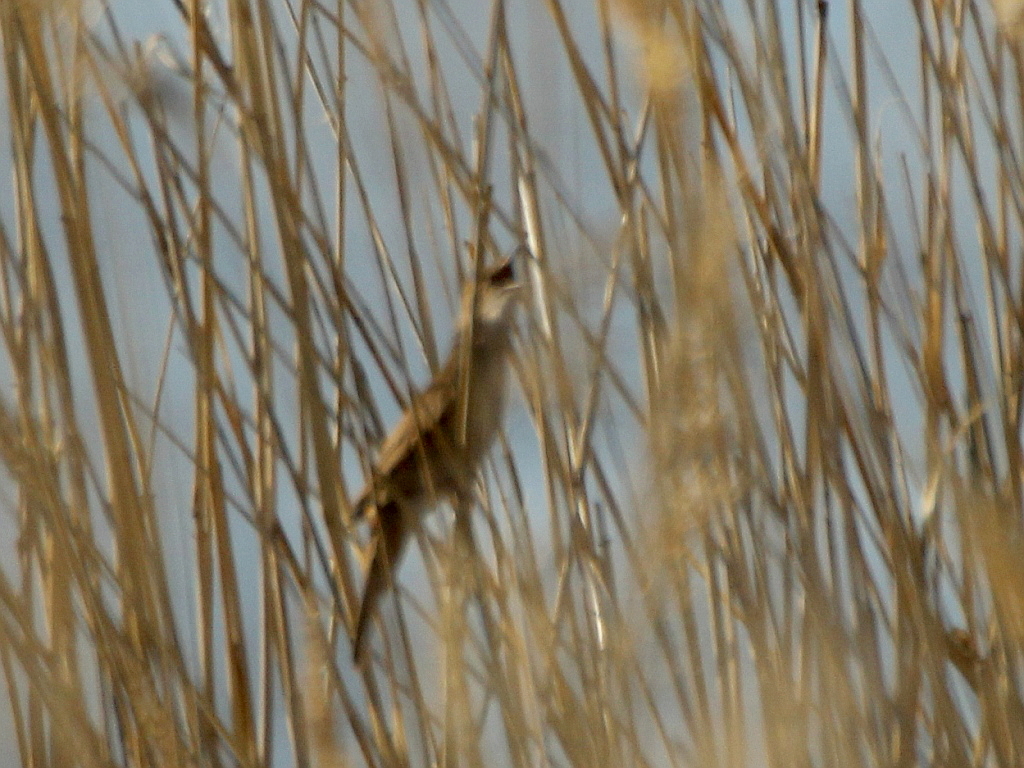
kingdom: Animalia
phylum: Chordata
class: Aves
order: Passeriformes
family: Locustellidae
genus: Locustella
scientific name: Locustella luscinioides
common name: Savi's warbler
